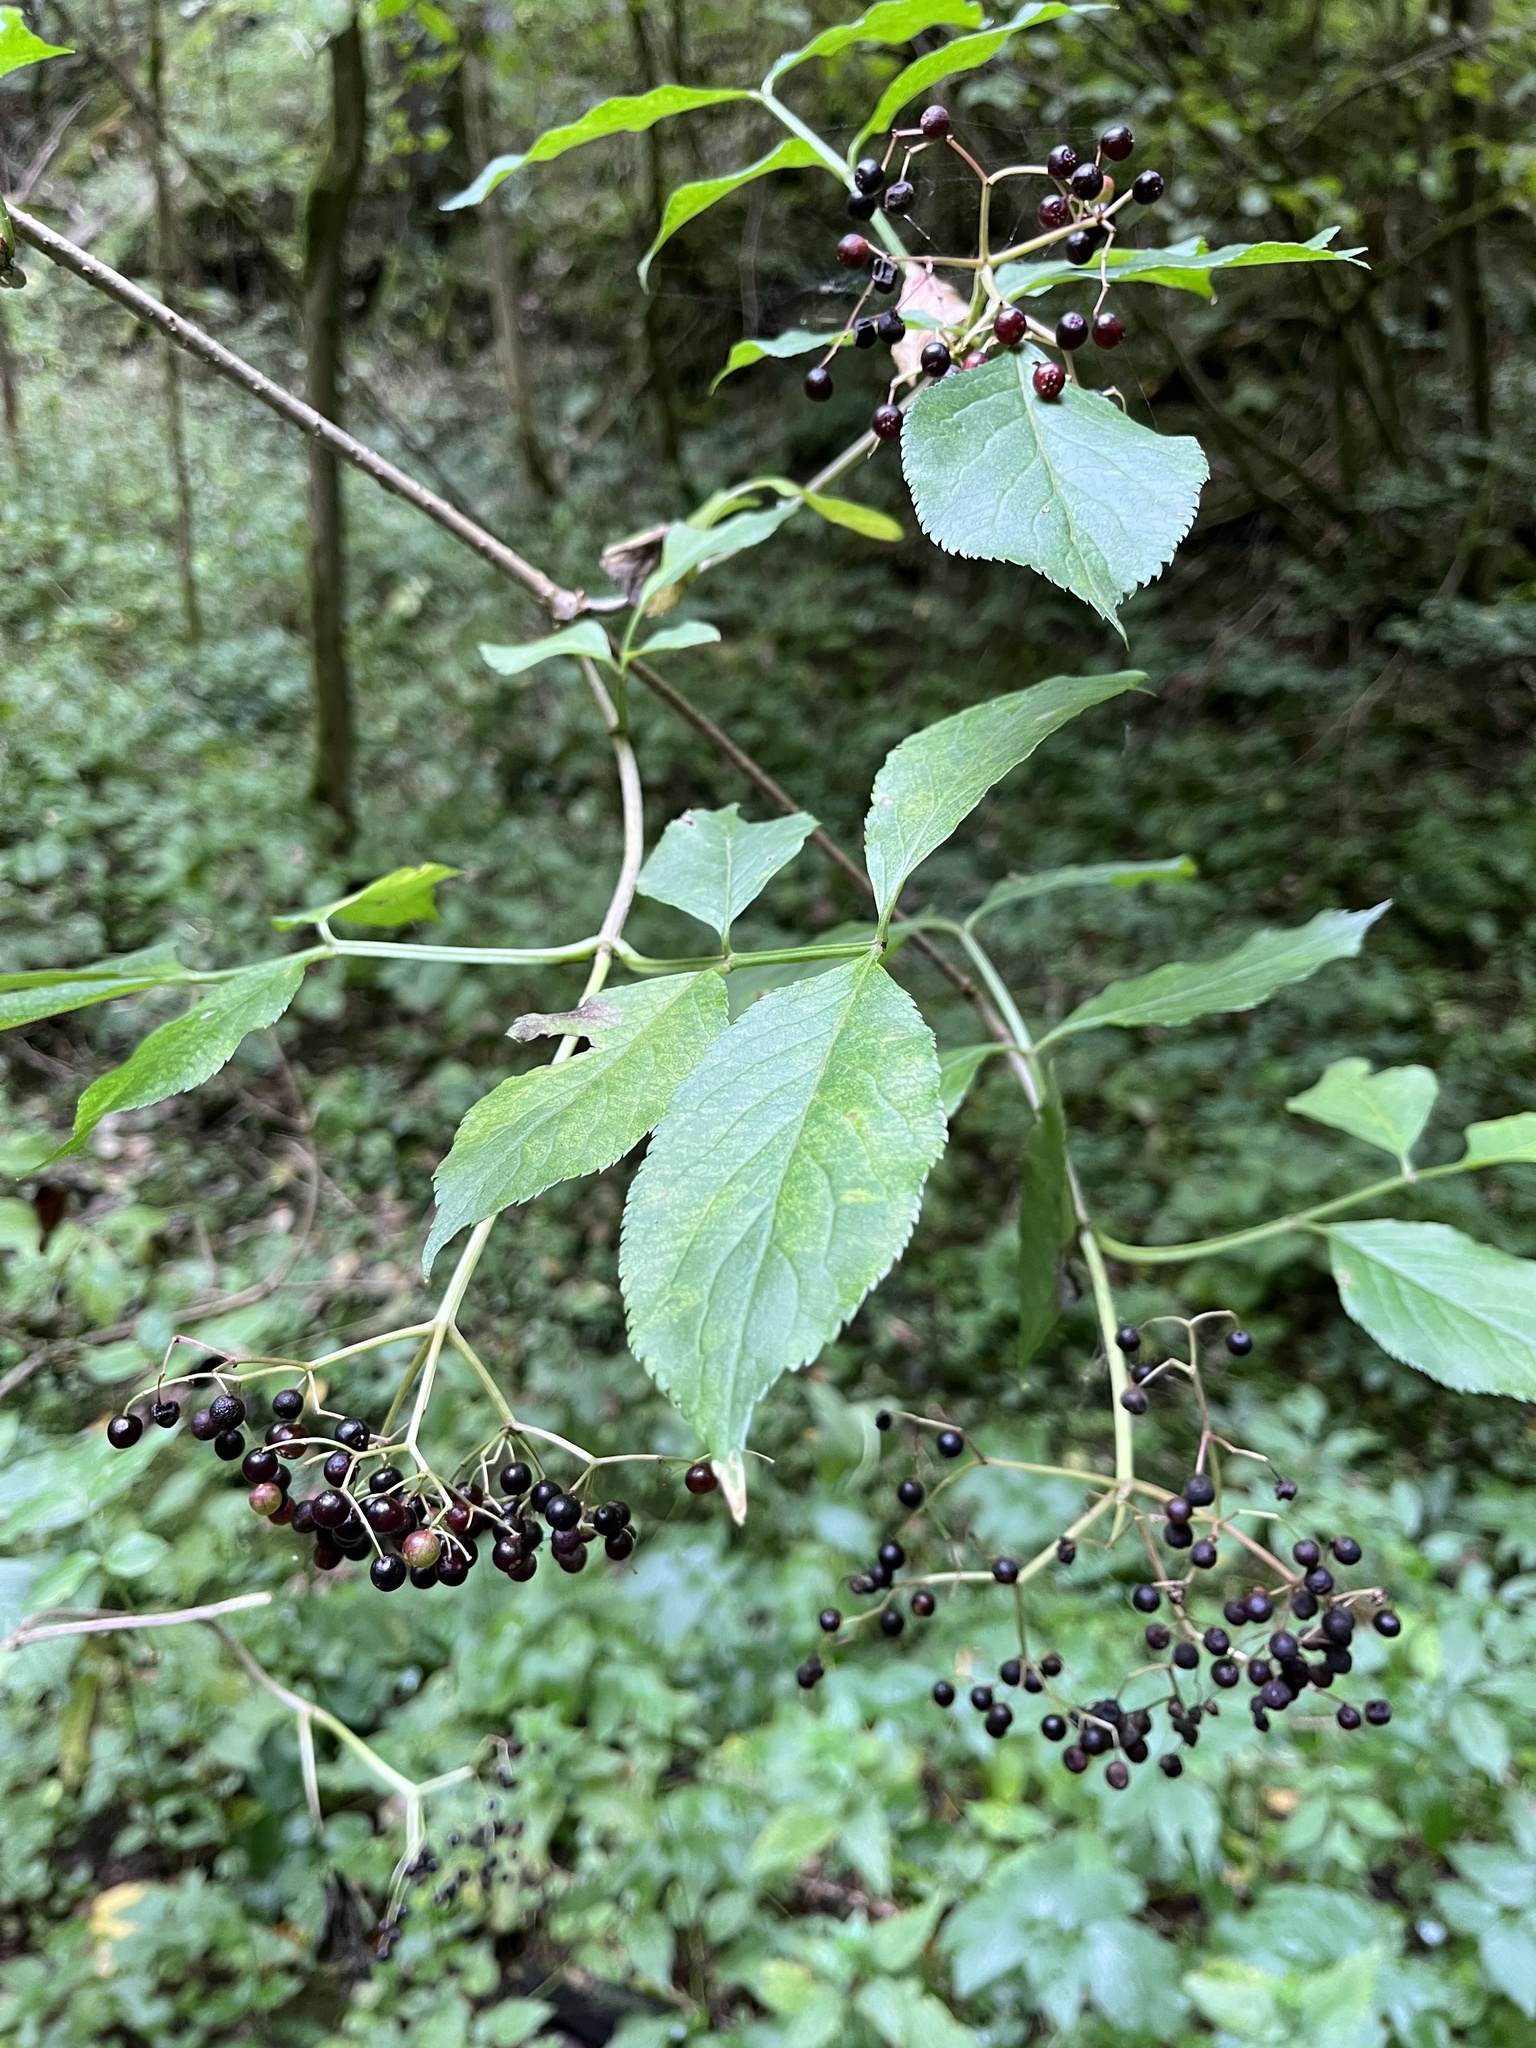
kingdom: Plantae
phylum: Tracheophyta
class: Magnoliopsida
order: Dipsacales
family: Viburnaceae
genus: Sambucus
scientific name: Sambucus nigra
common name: Elder
